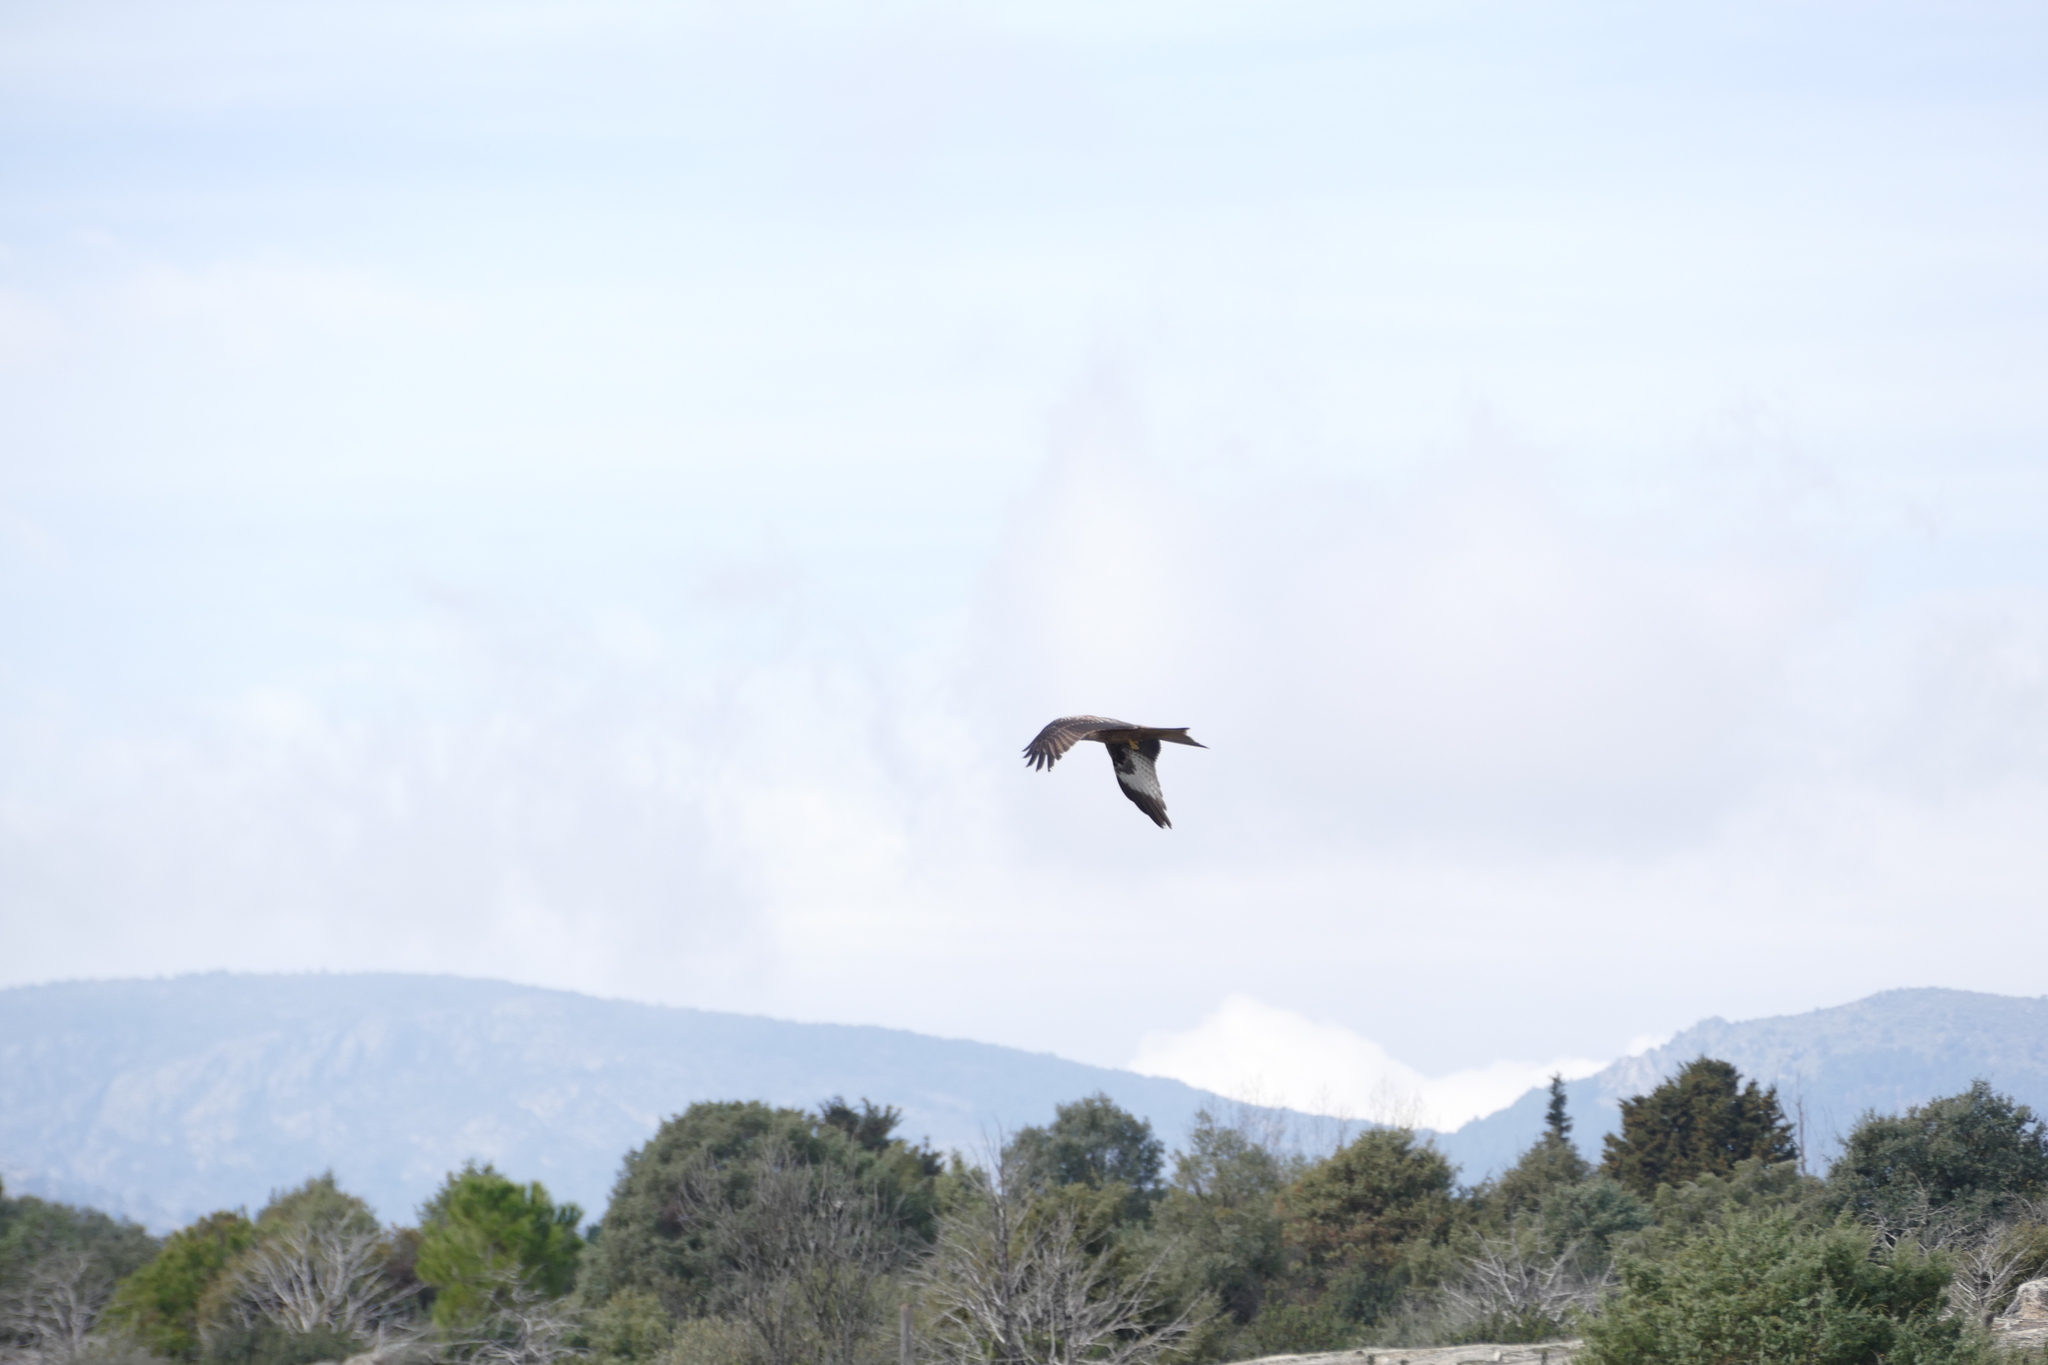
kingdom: Animalia
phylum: Chordata
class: Aves
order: Accipitriformes
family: Accipitridae
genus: Milvus
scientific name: Milvus milvus
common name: Red kite
